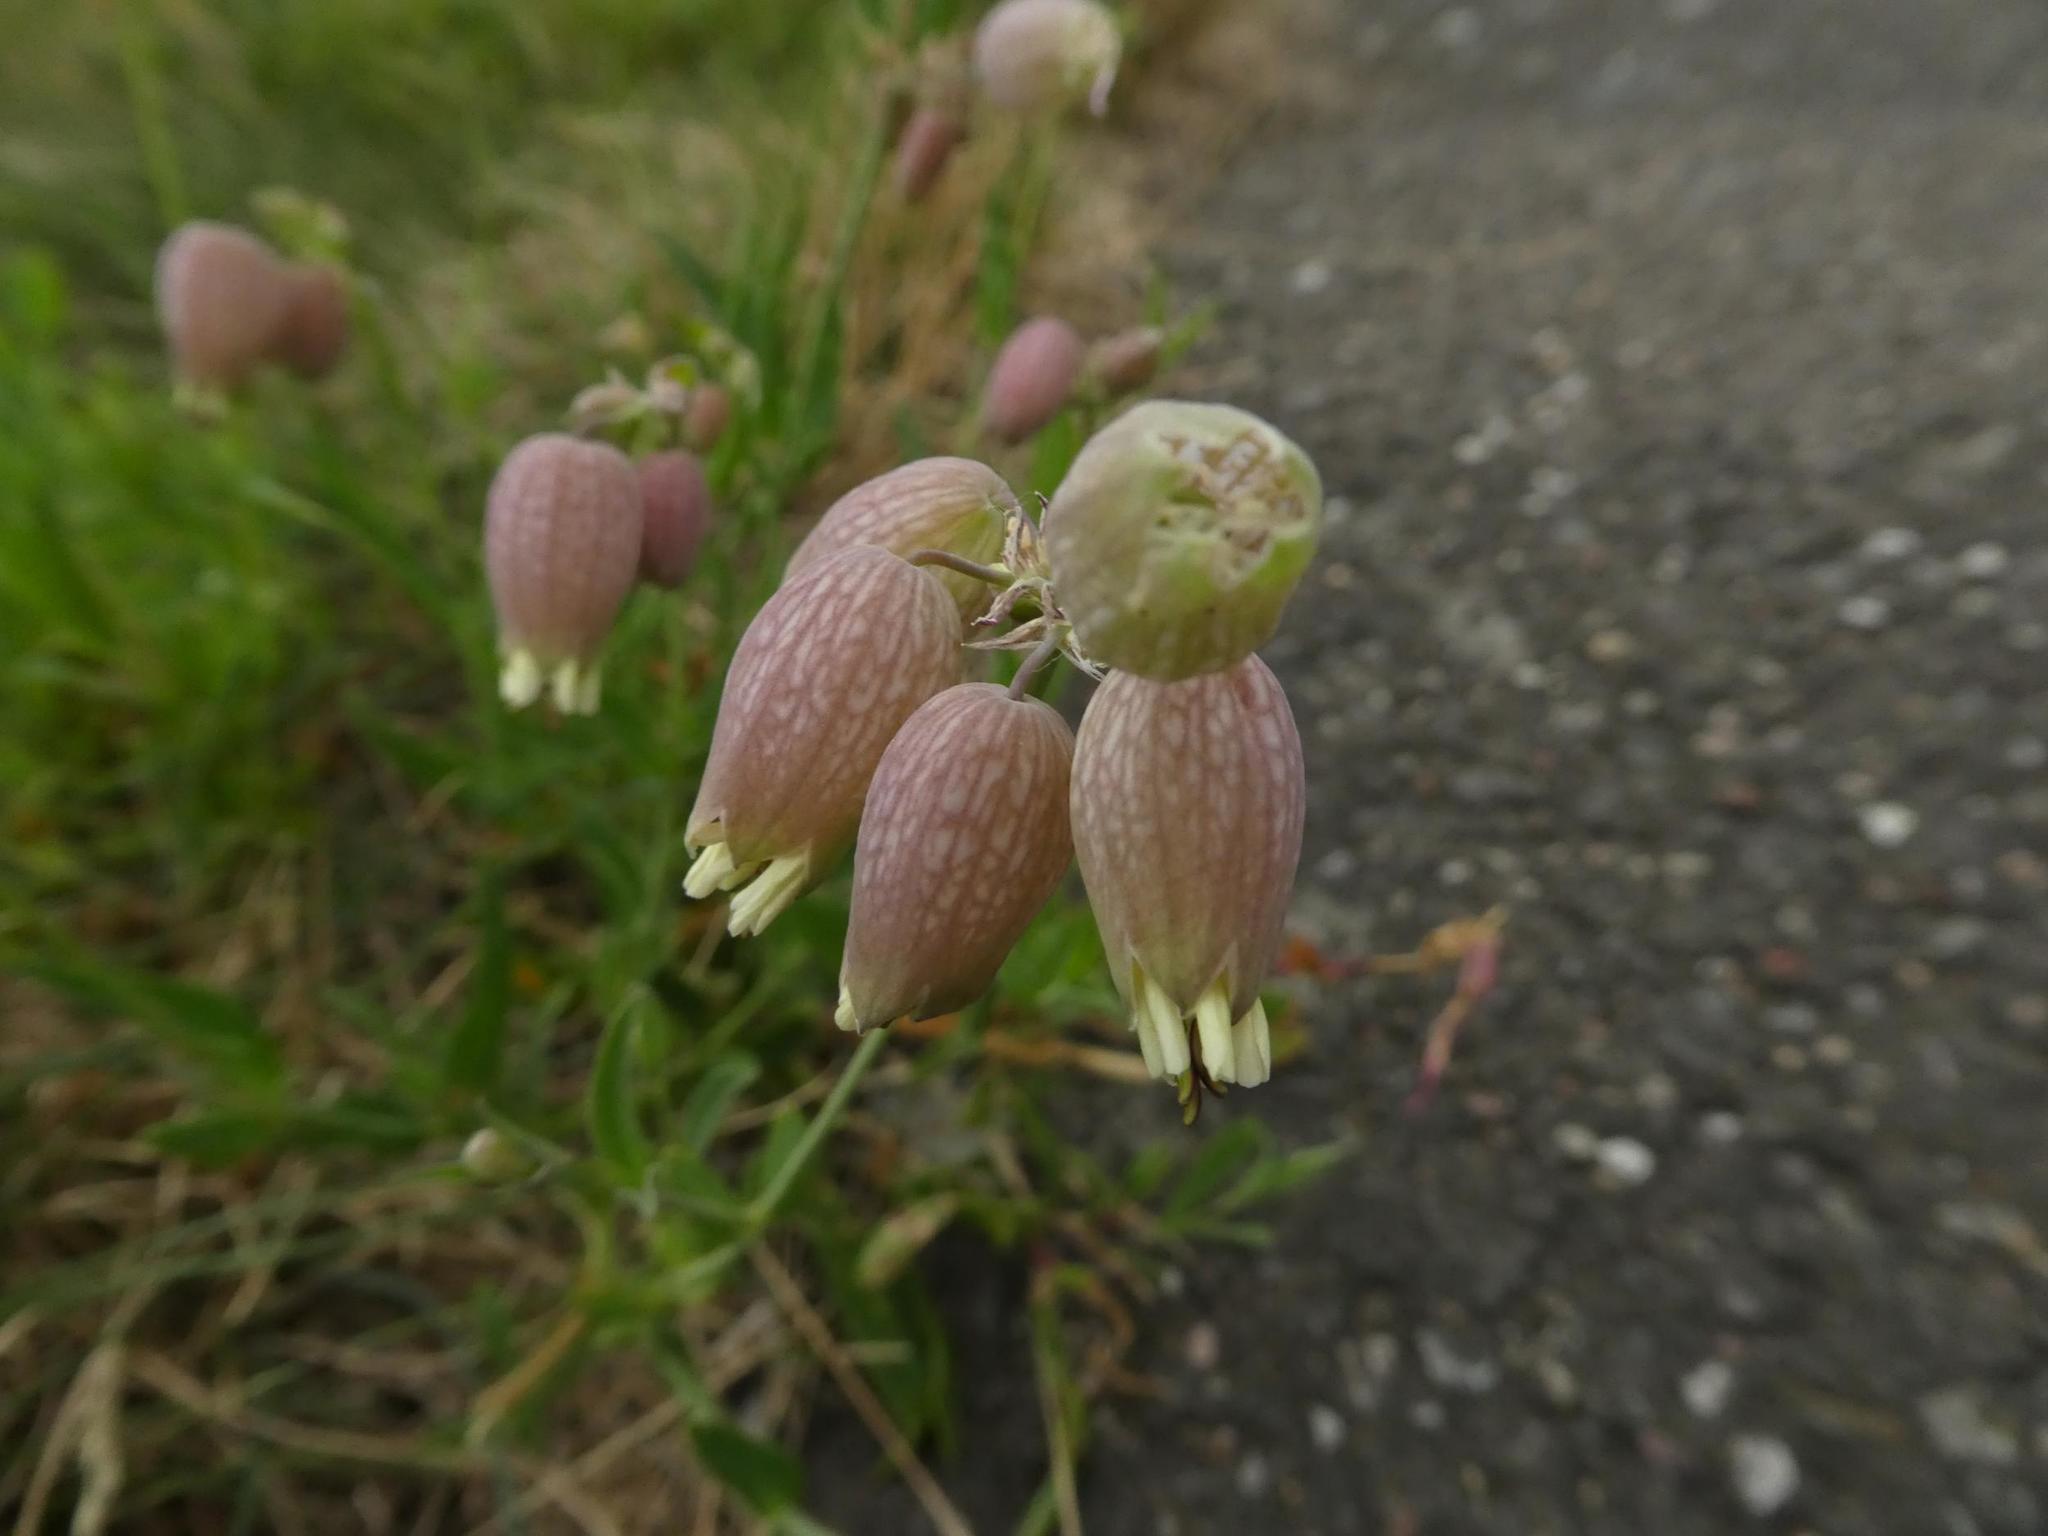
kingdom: Plantae
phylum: Tracheophyta
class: Magnoliopsida
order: Caryophyllales
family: Caryophyllaceae
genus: Silene
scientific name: Silene vulgaris
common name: Bladder campion
